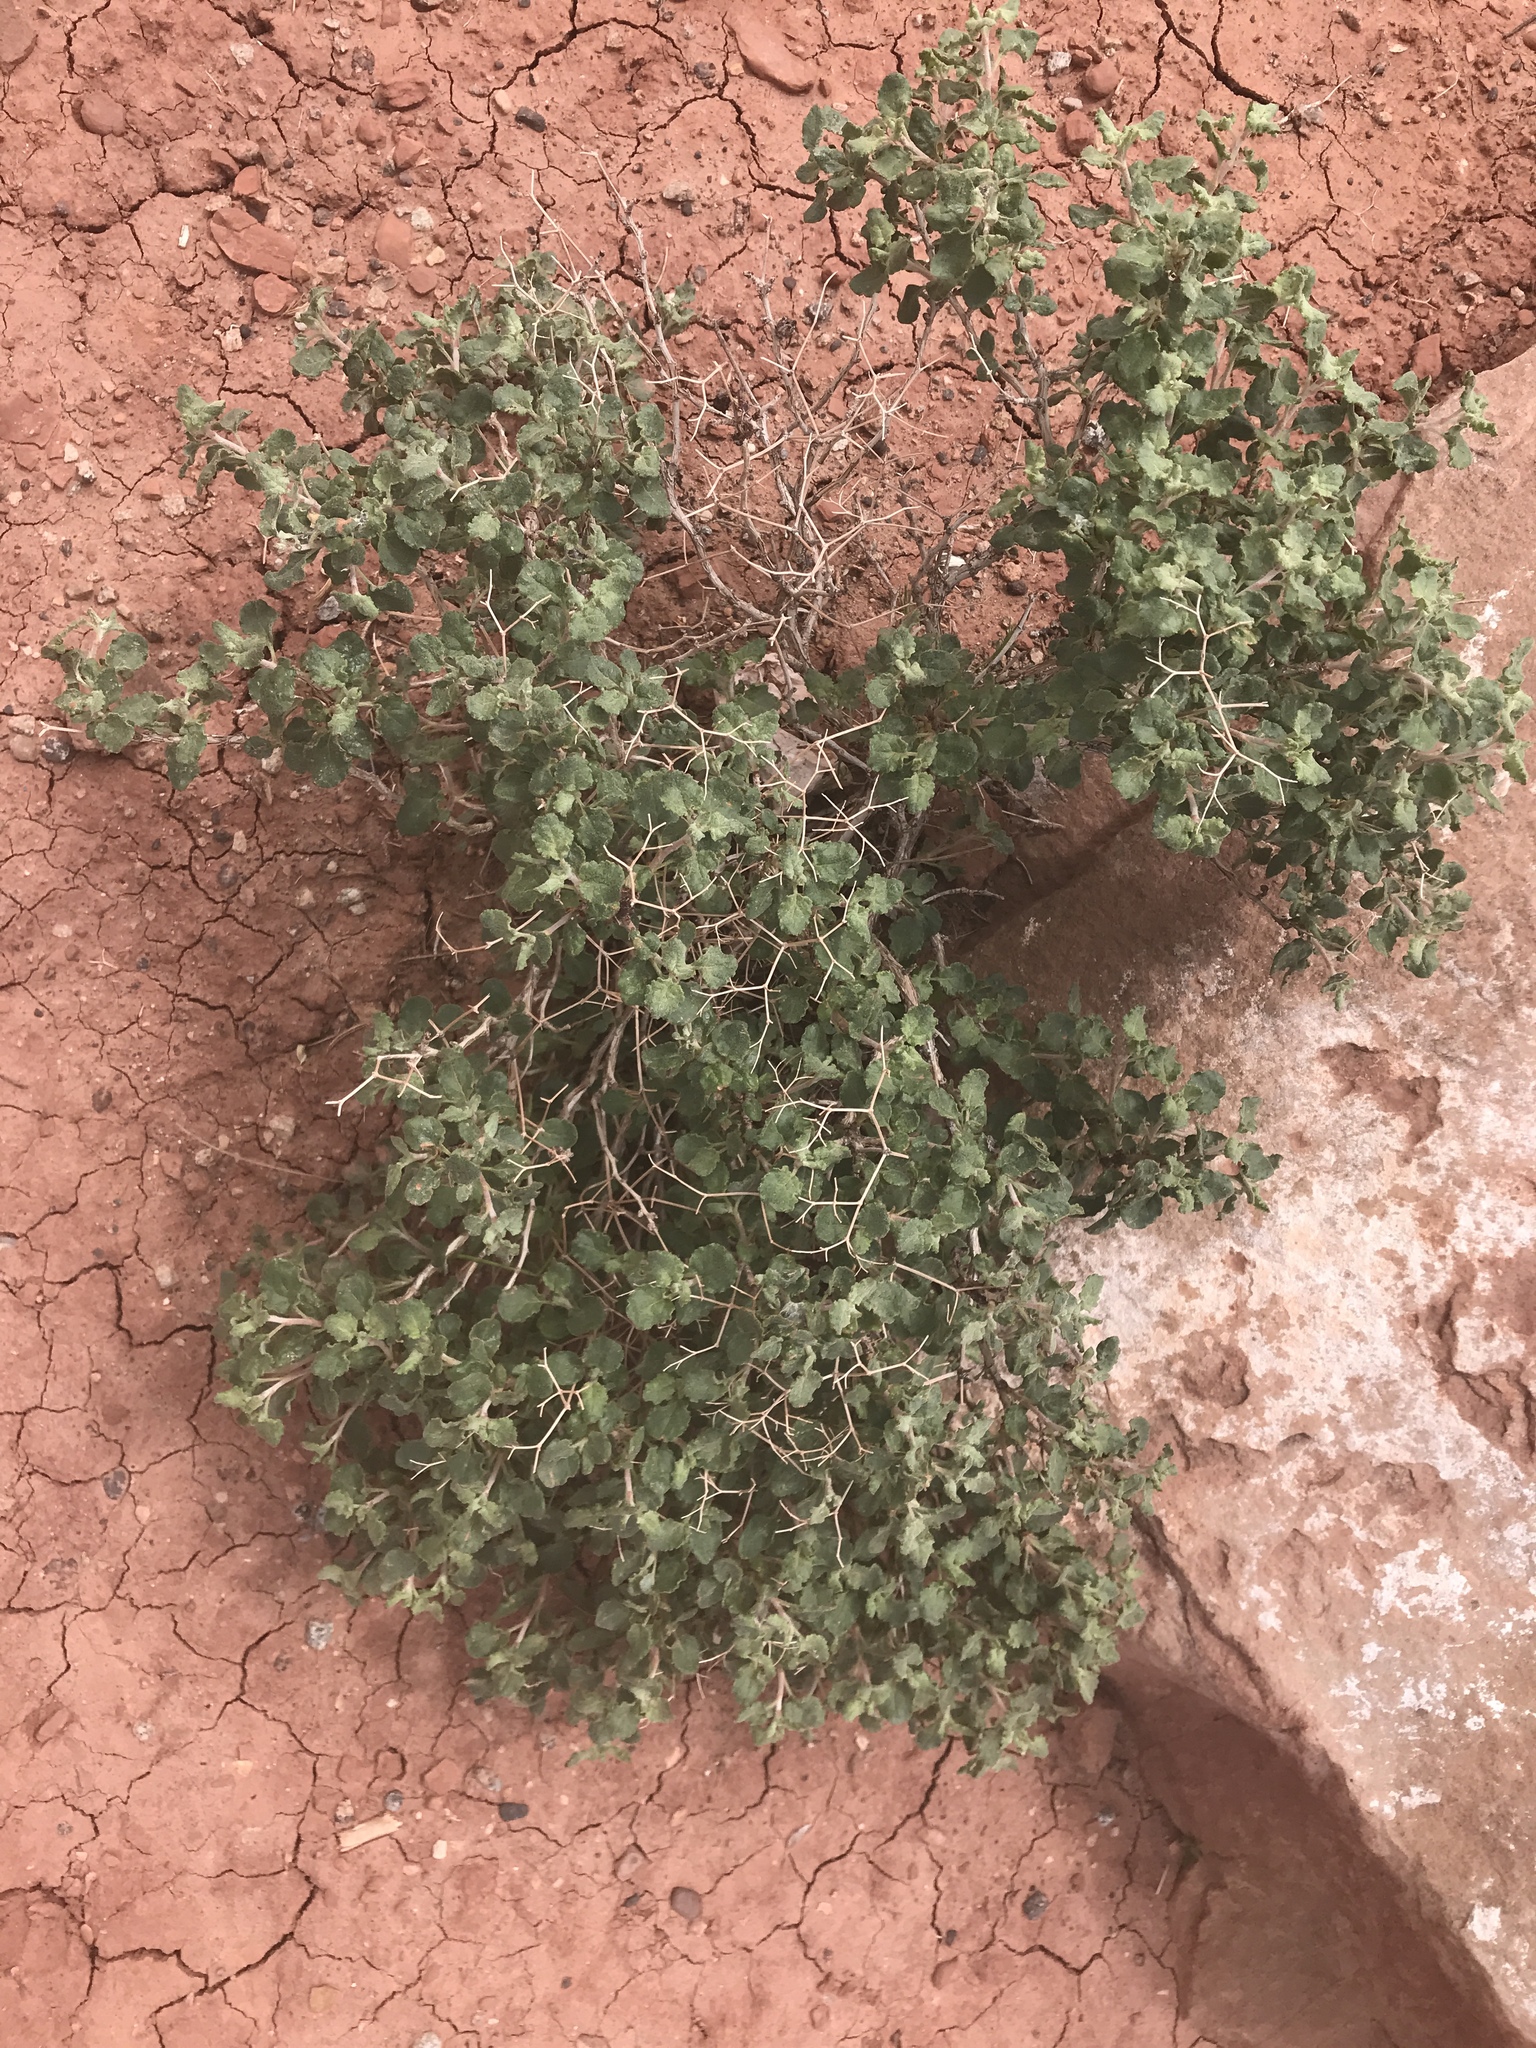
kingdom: Plantae
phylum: Tracheophyta
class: Magnoliopsida
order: Caryophyllales
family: Polygonaceae
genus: Eriogonum
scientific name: Eriogonum corymbosum
